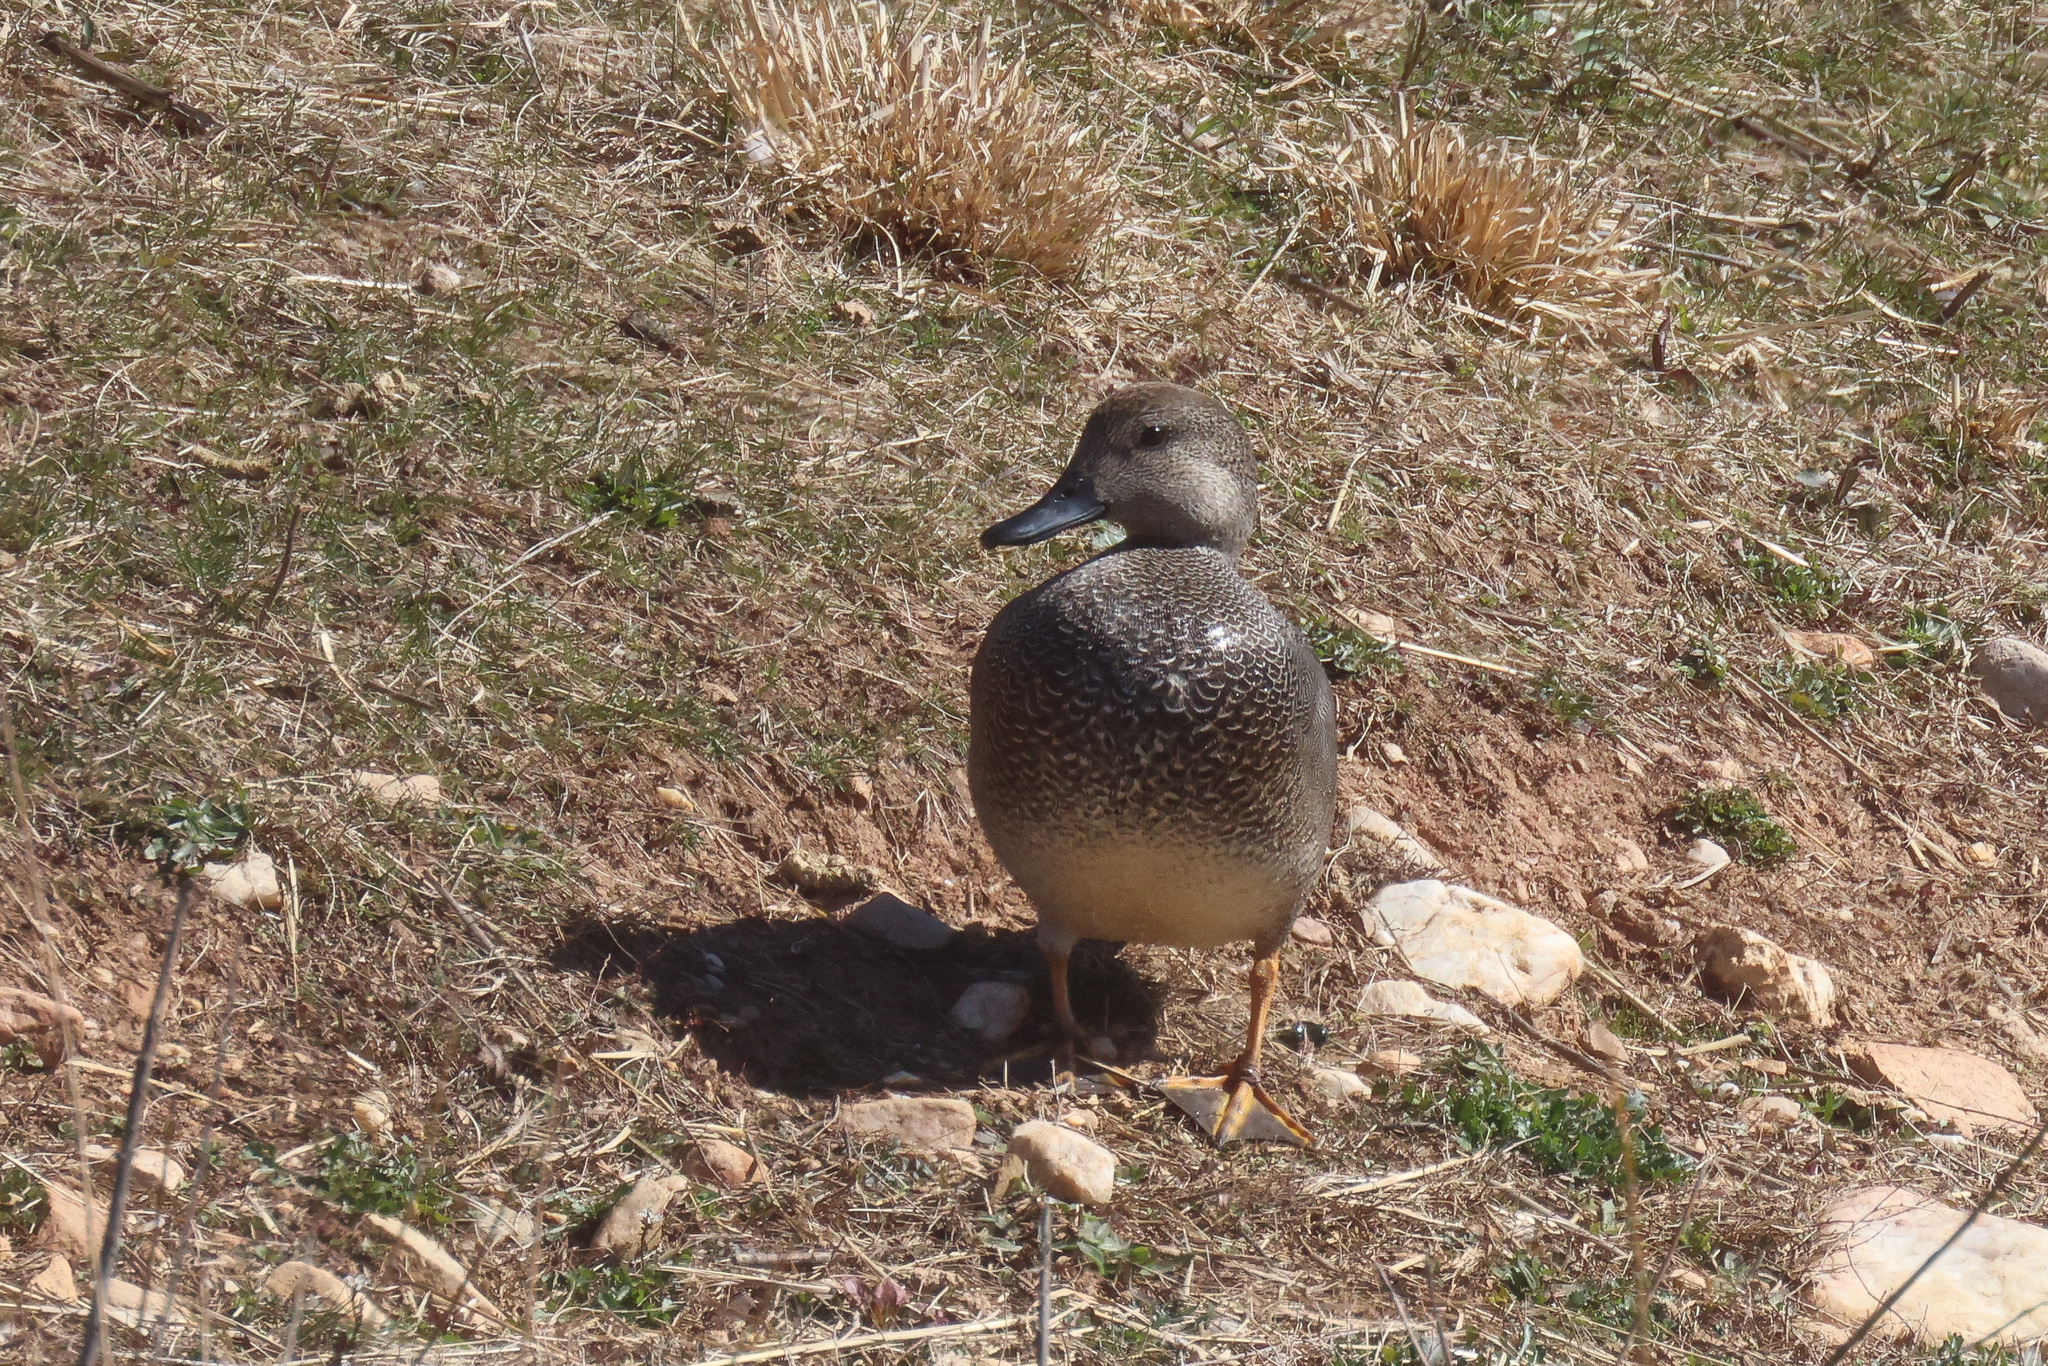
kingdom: Animalia
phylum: Chordata
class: Aves
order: Anseriformes
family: Anatidae
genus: Mareca
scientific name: Mareca strepera
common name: Gadwall
